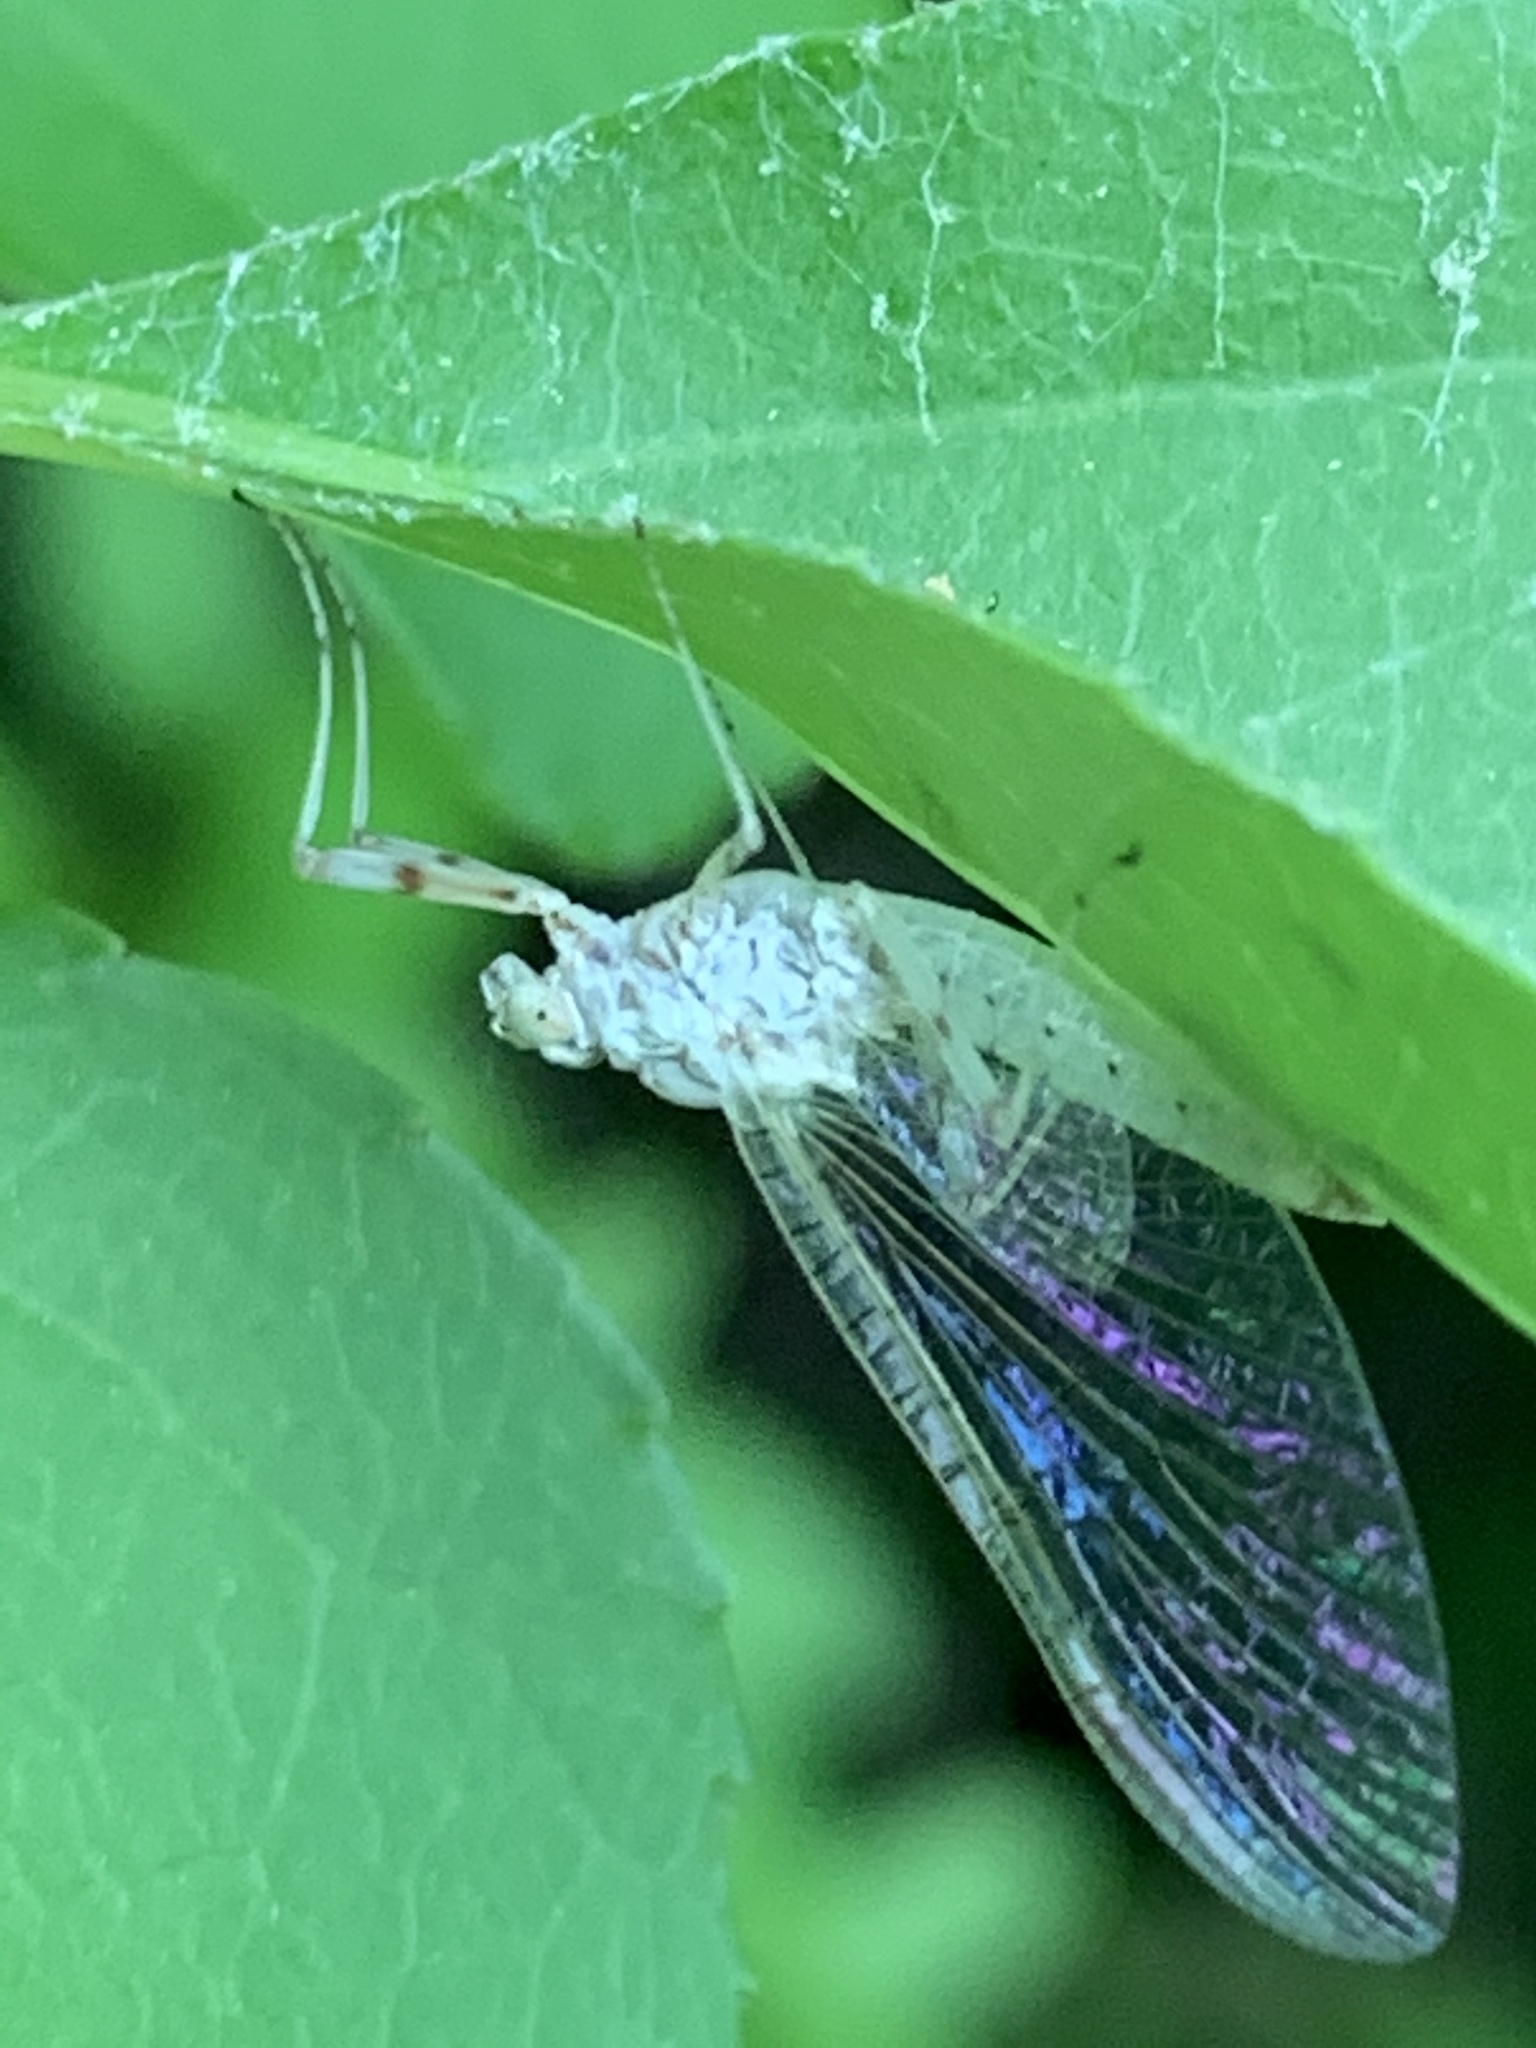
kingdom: Animalia
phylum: Arthropoda
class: Insecta
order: Ephemeroptera
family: Heptageniidae
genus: Maccaffertium
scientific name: Maccaffertium modestum
